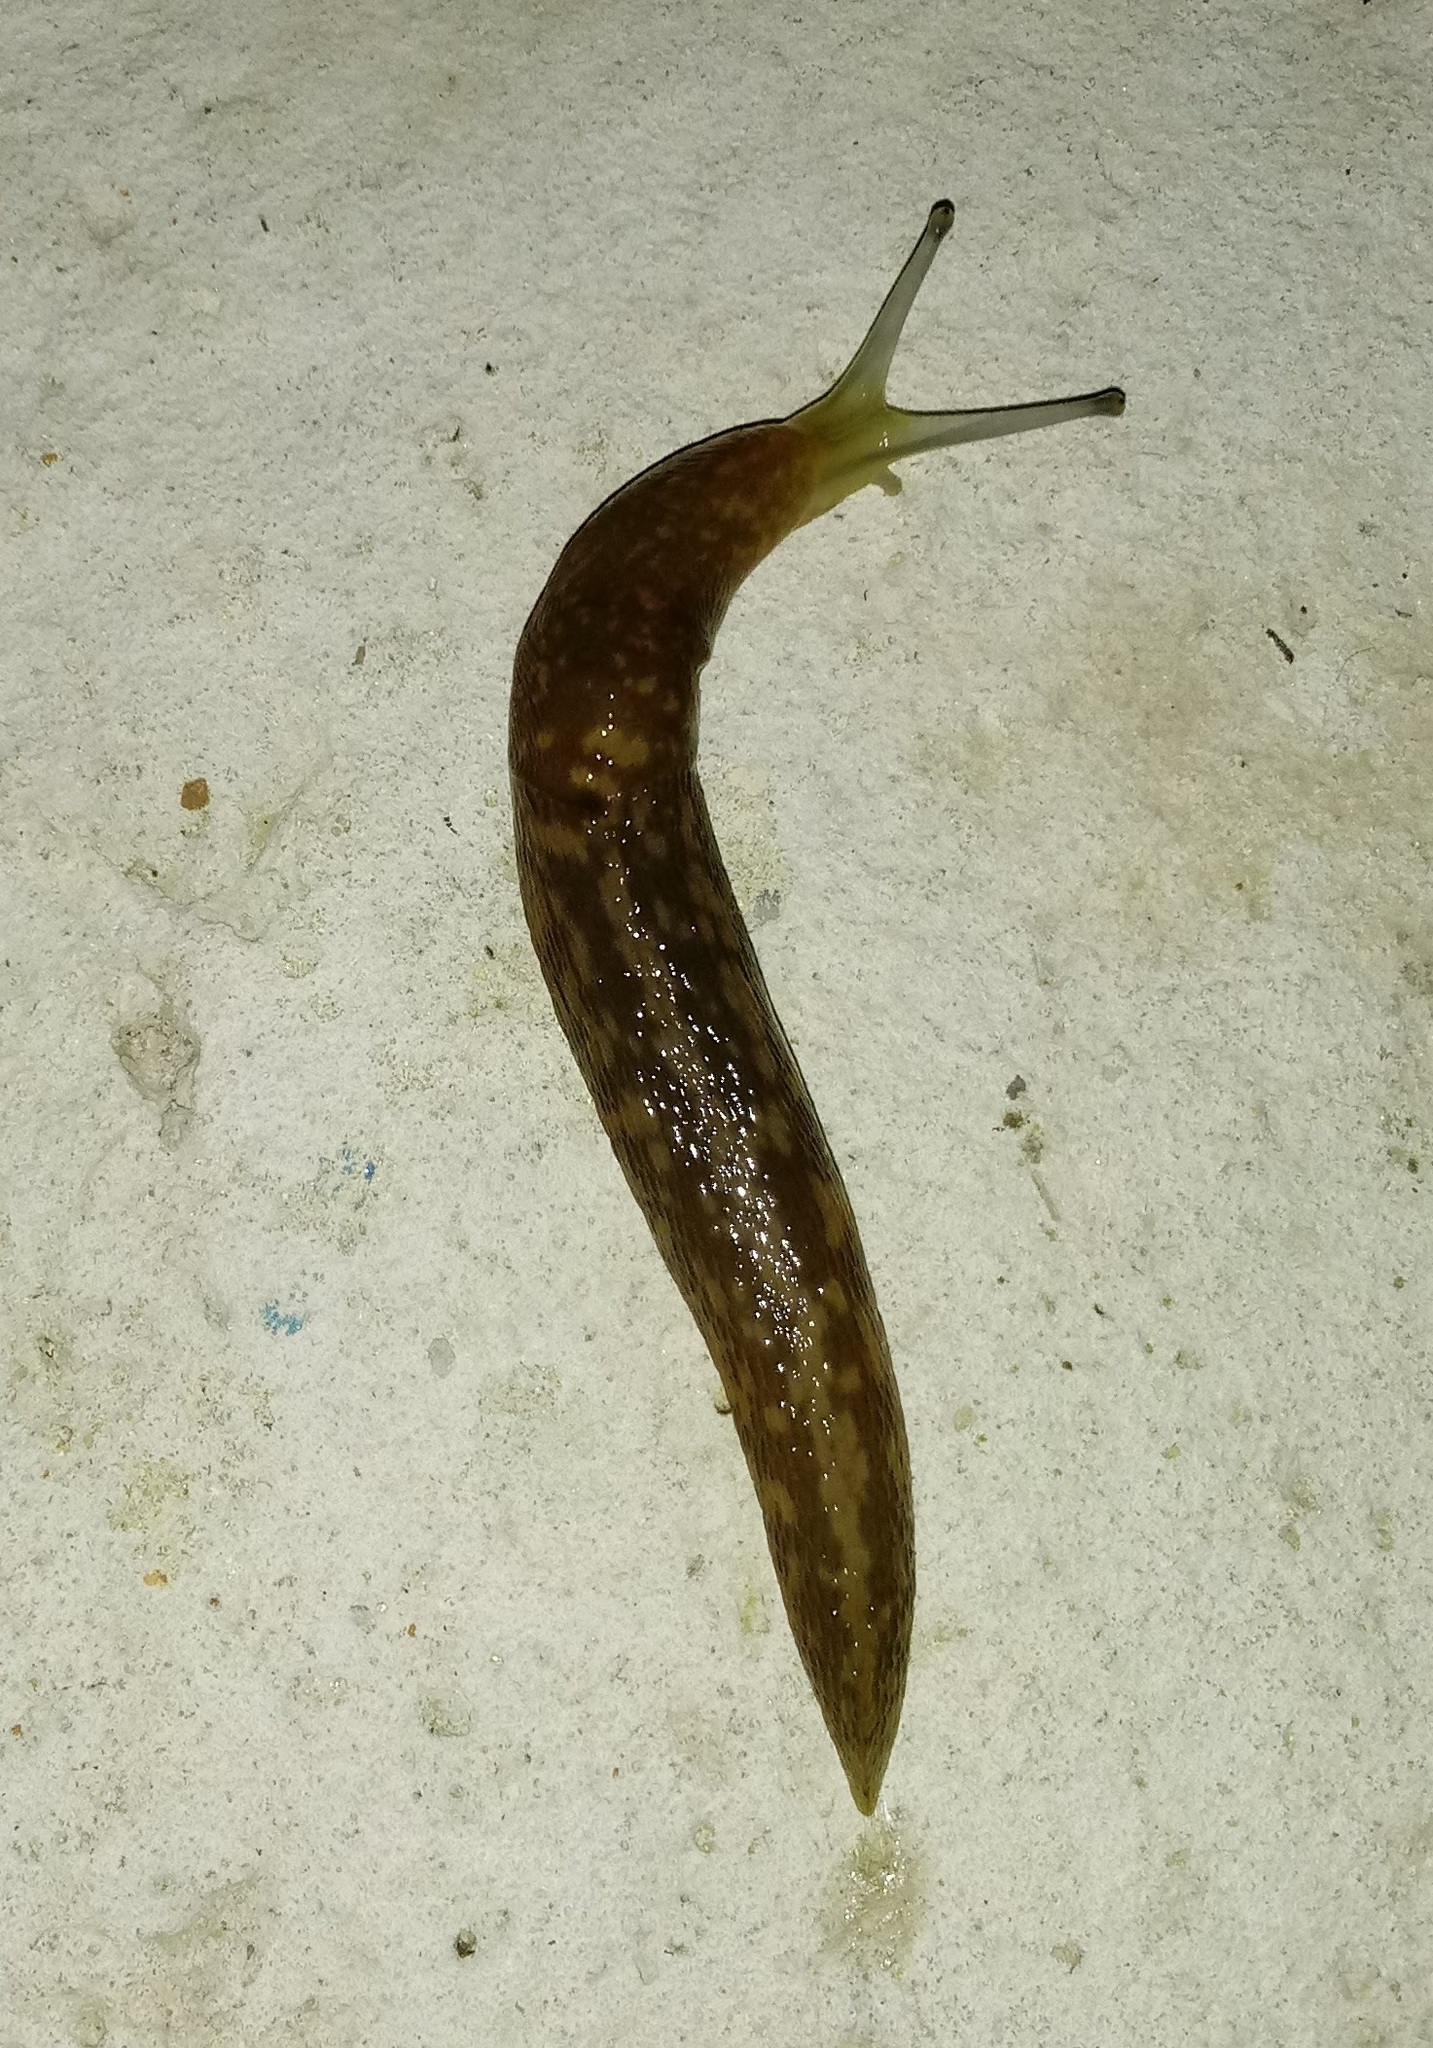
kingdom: Animalia
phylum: Mollusca
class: Gastropoda
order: Stylommatophora
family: Limacidae
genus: Limacus
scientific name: Limacus flavus
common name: Yellow gardenslug
